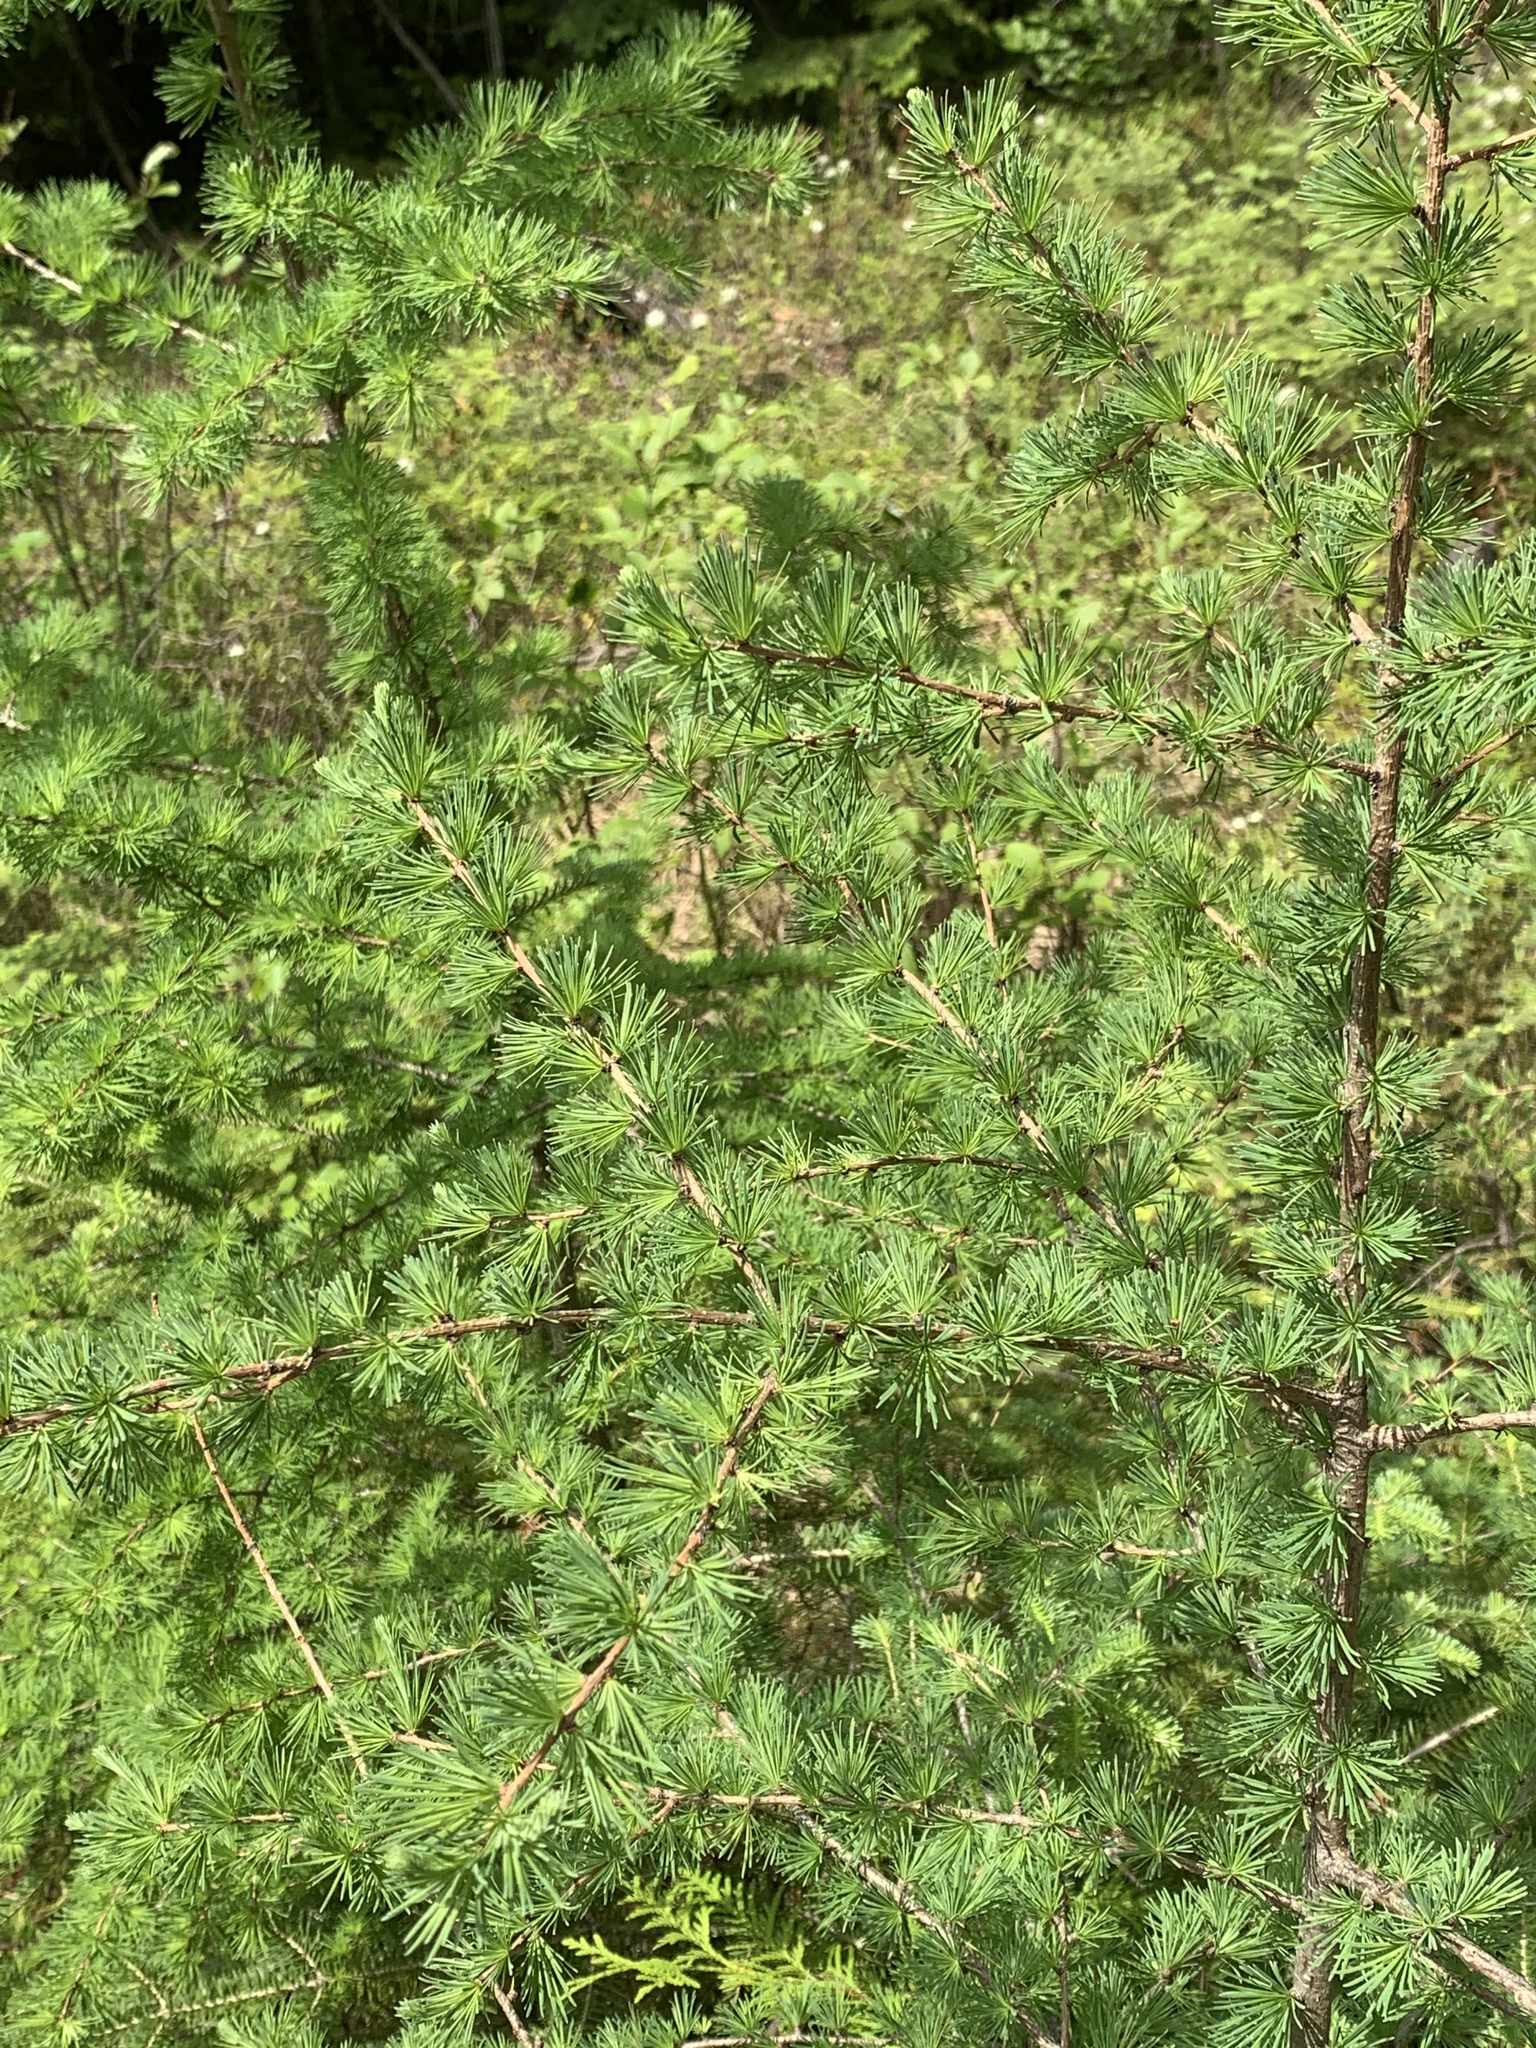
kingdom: Plantae
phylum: Tracheophyta
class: Pinopsida
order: Pinales
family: Pinaceae
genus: Larix
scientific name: Larix laricina
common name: American larch
